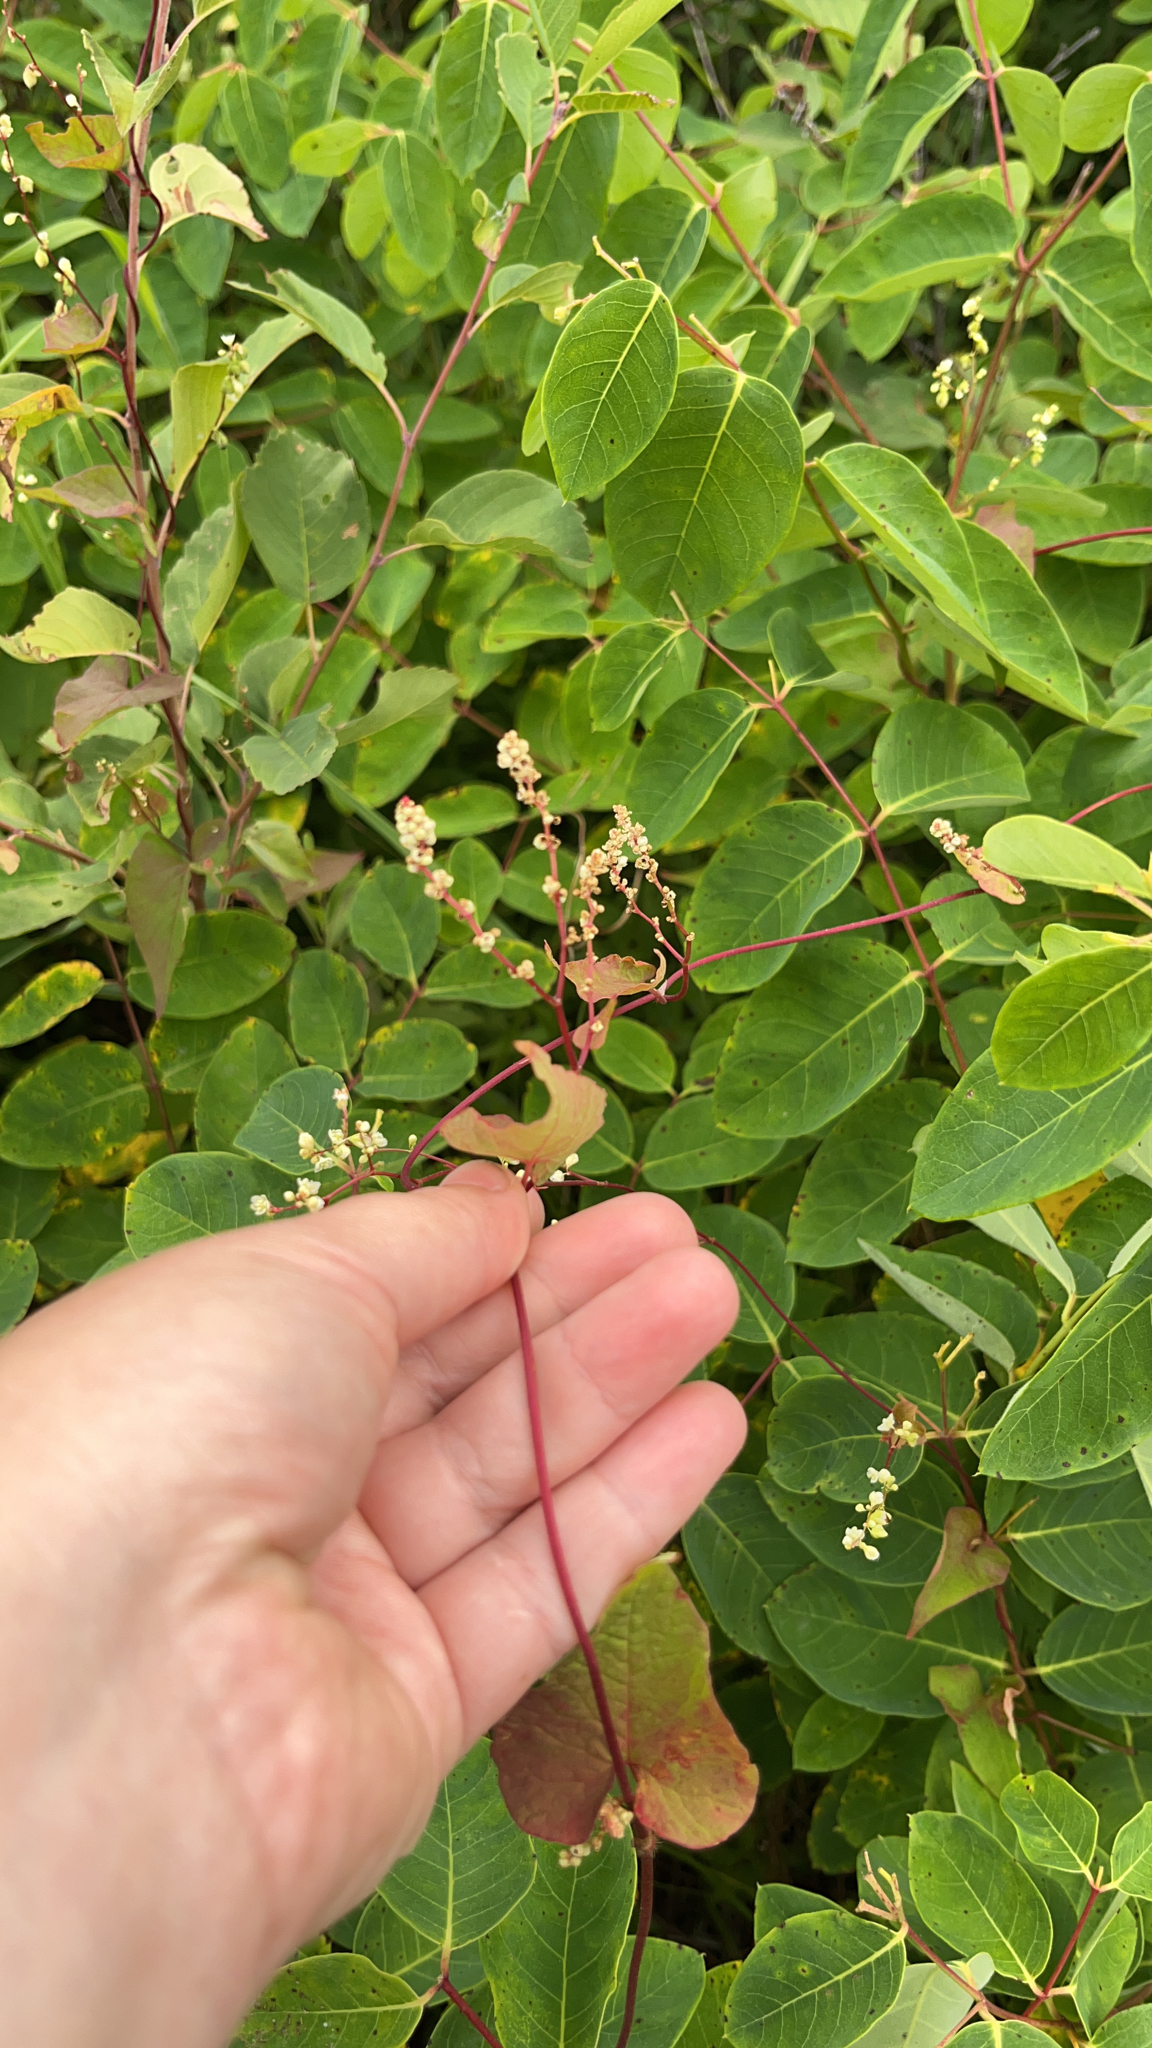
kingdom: Plantae
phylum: Tracheophyta
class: Magnoliopsida
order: Caryophyllales
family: Polygonaceae
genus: Parogonum
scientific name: Parogonum ciliinode
